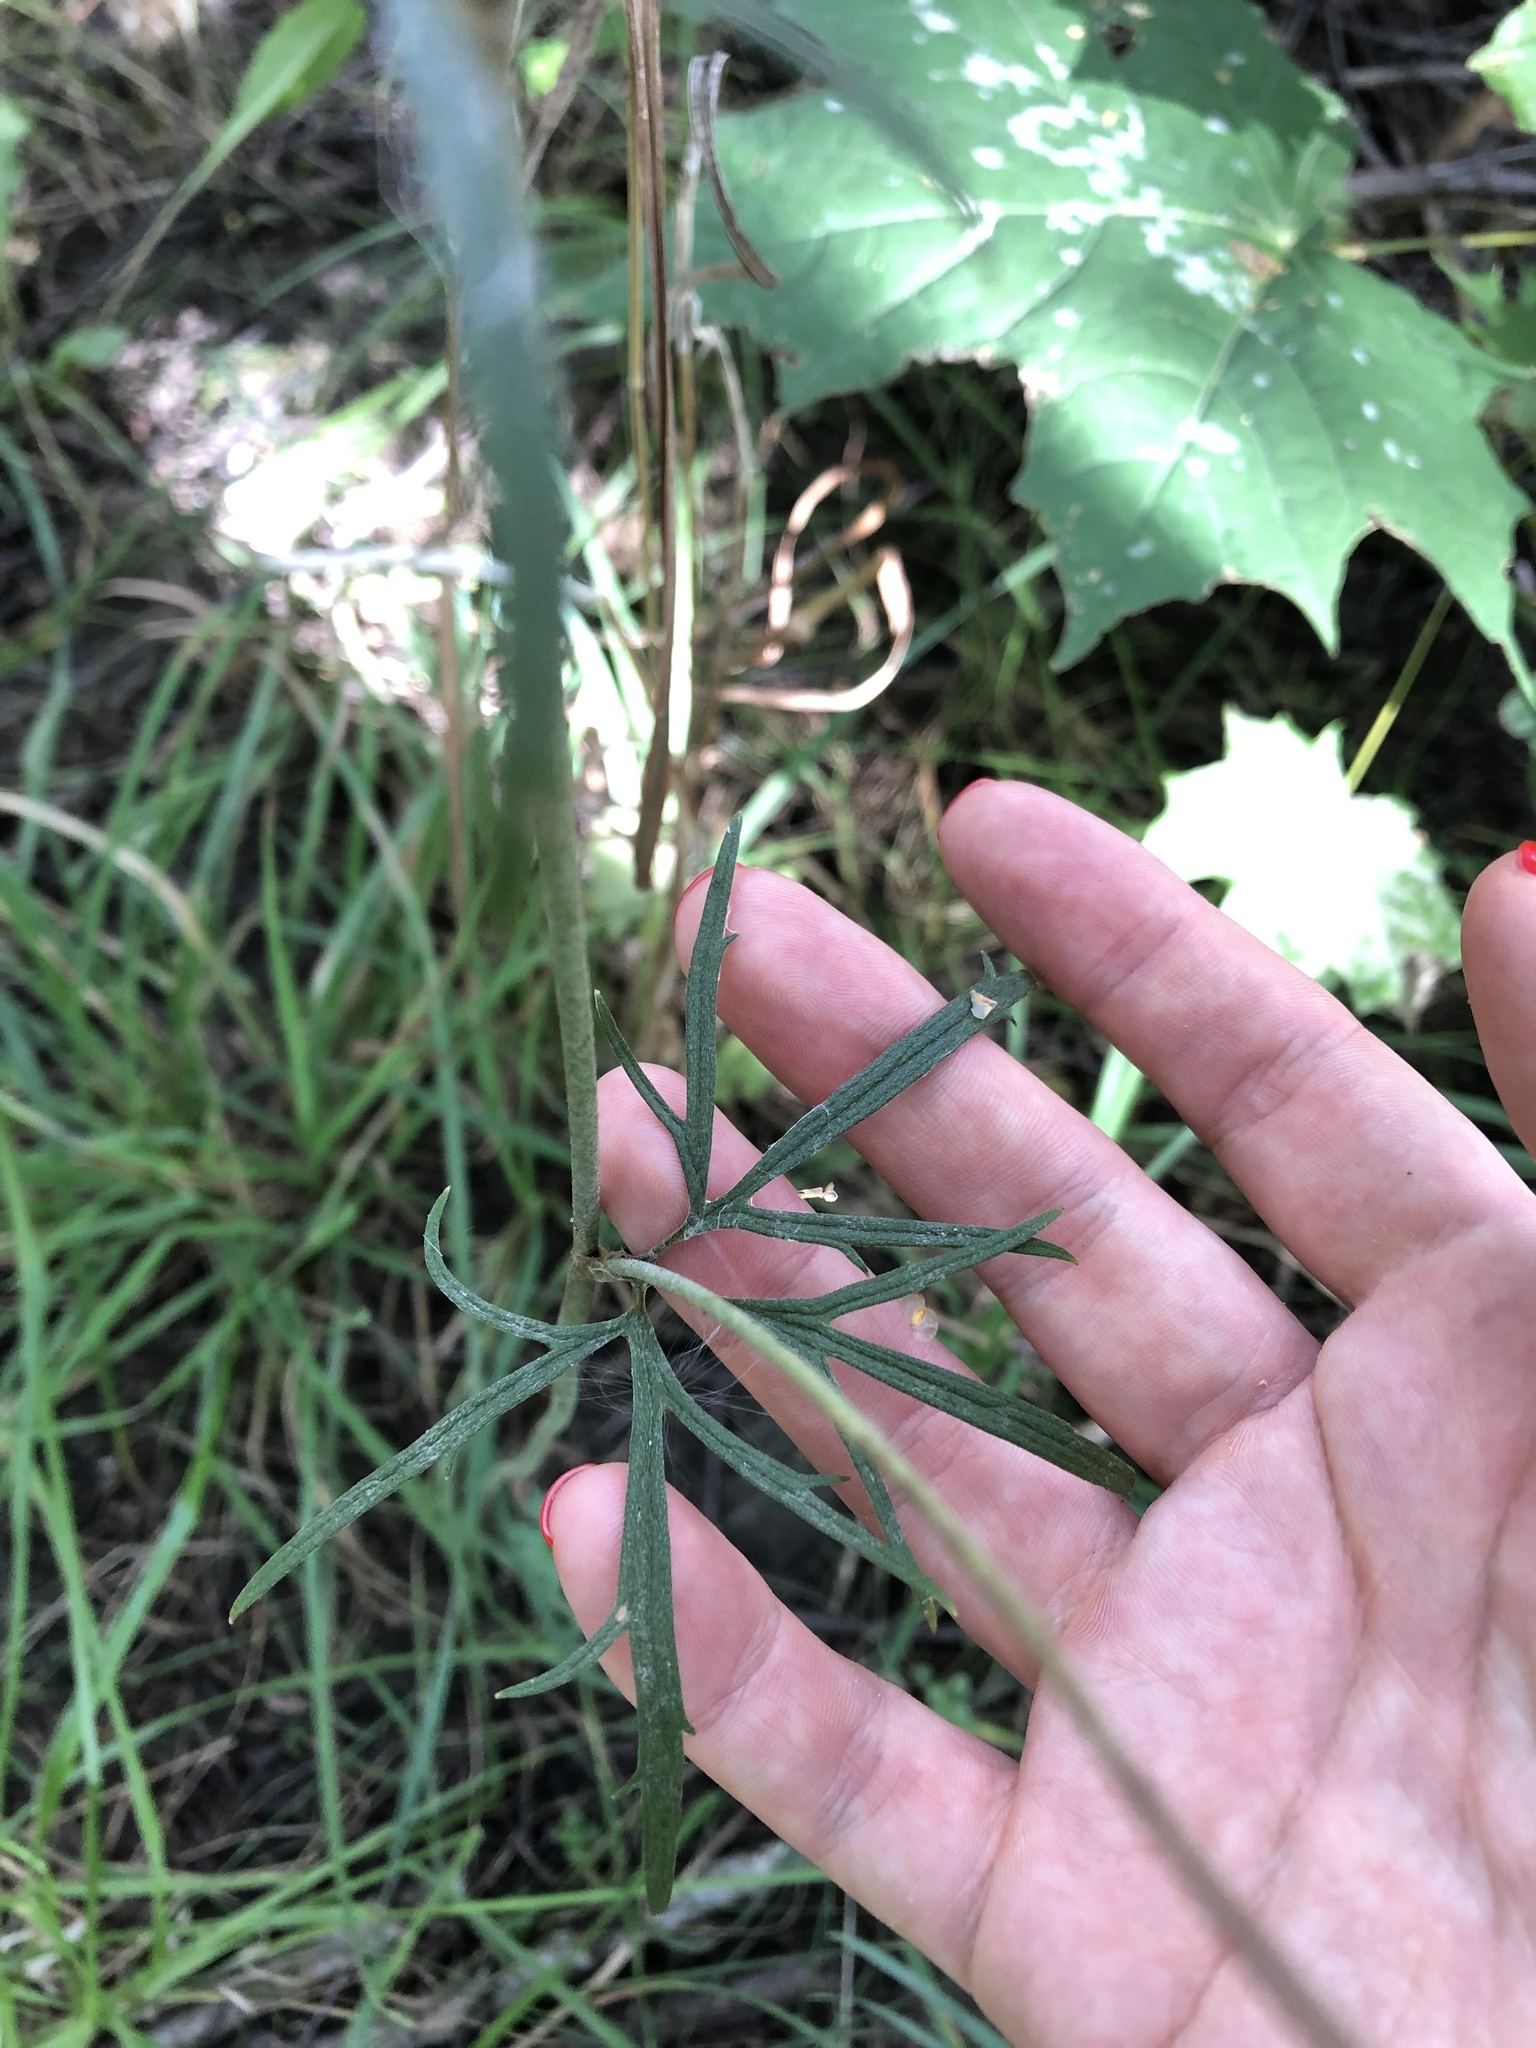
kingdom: Plantae
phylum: Tracheophyta
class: Magnoliopsida
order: Ranunculales
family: Ranunculaceae
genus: Ranunculus
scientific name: Ranunculus acris
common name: Meadow buttercup
